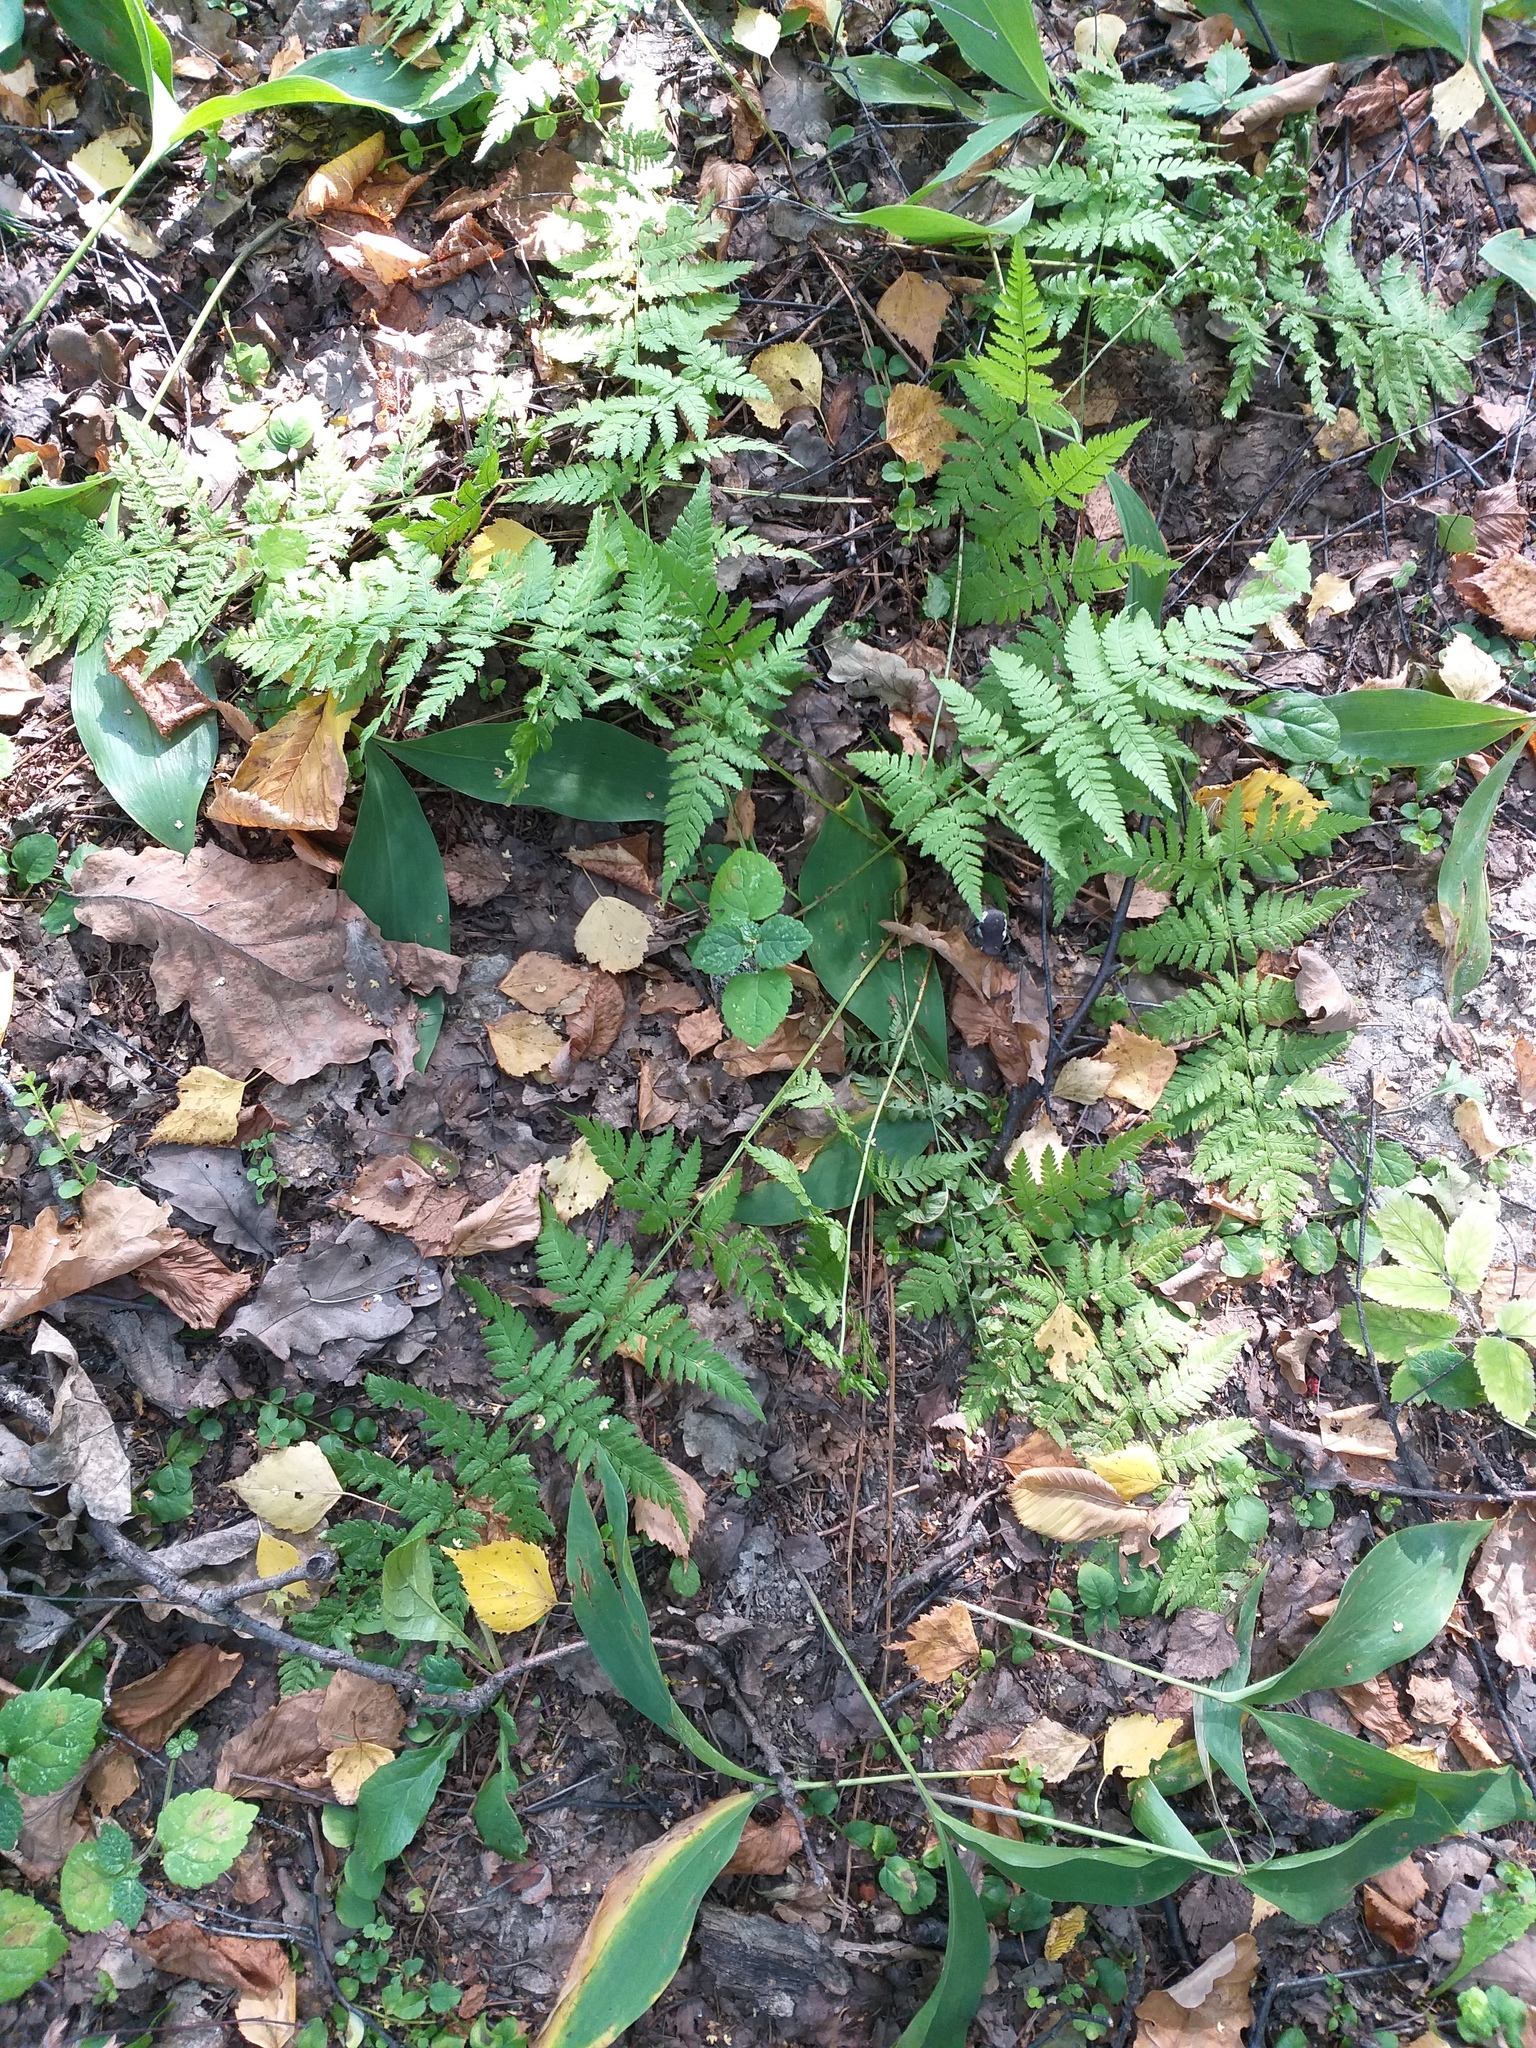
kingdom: Plantae
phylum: Tracheophyta
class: Polypodiopsida
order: Polypodiales
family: Dryopteridaceae
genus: Dryopteris
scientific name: Dryopteris carthusiana
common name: Narrow buckler-fern
